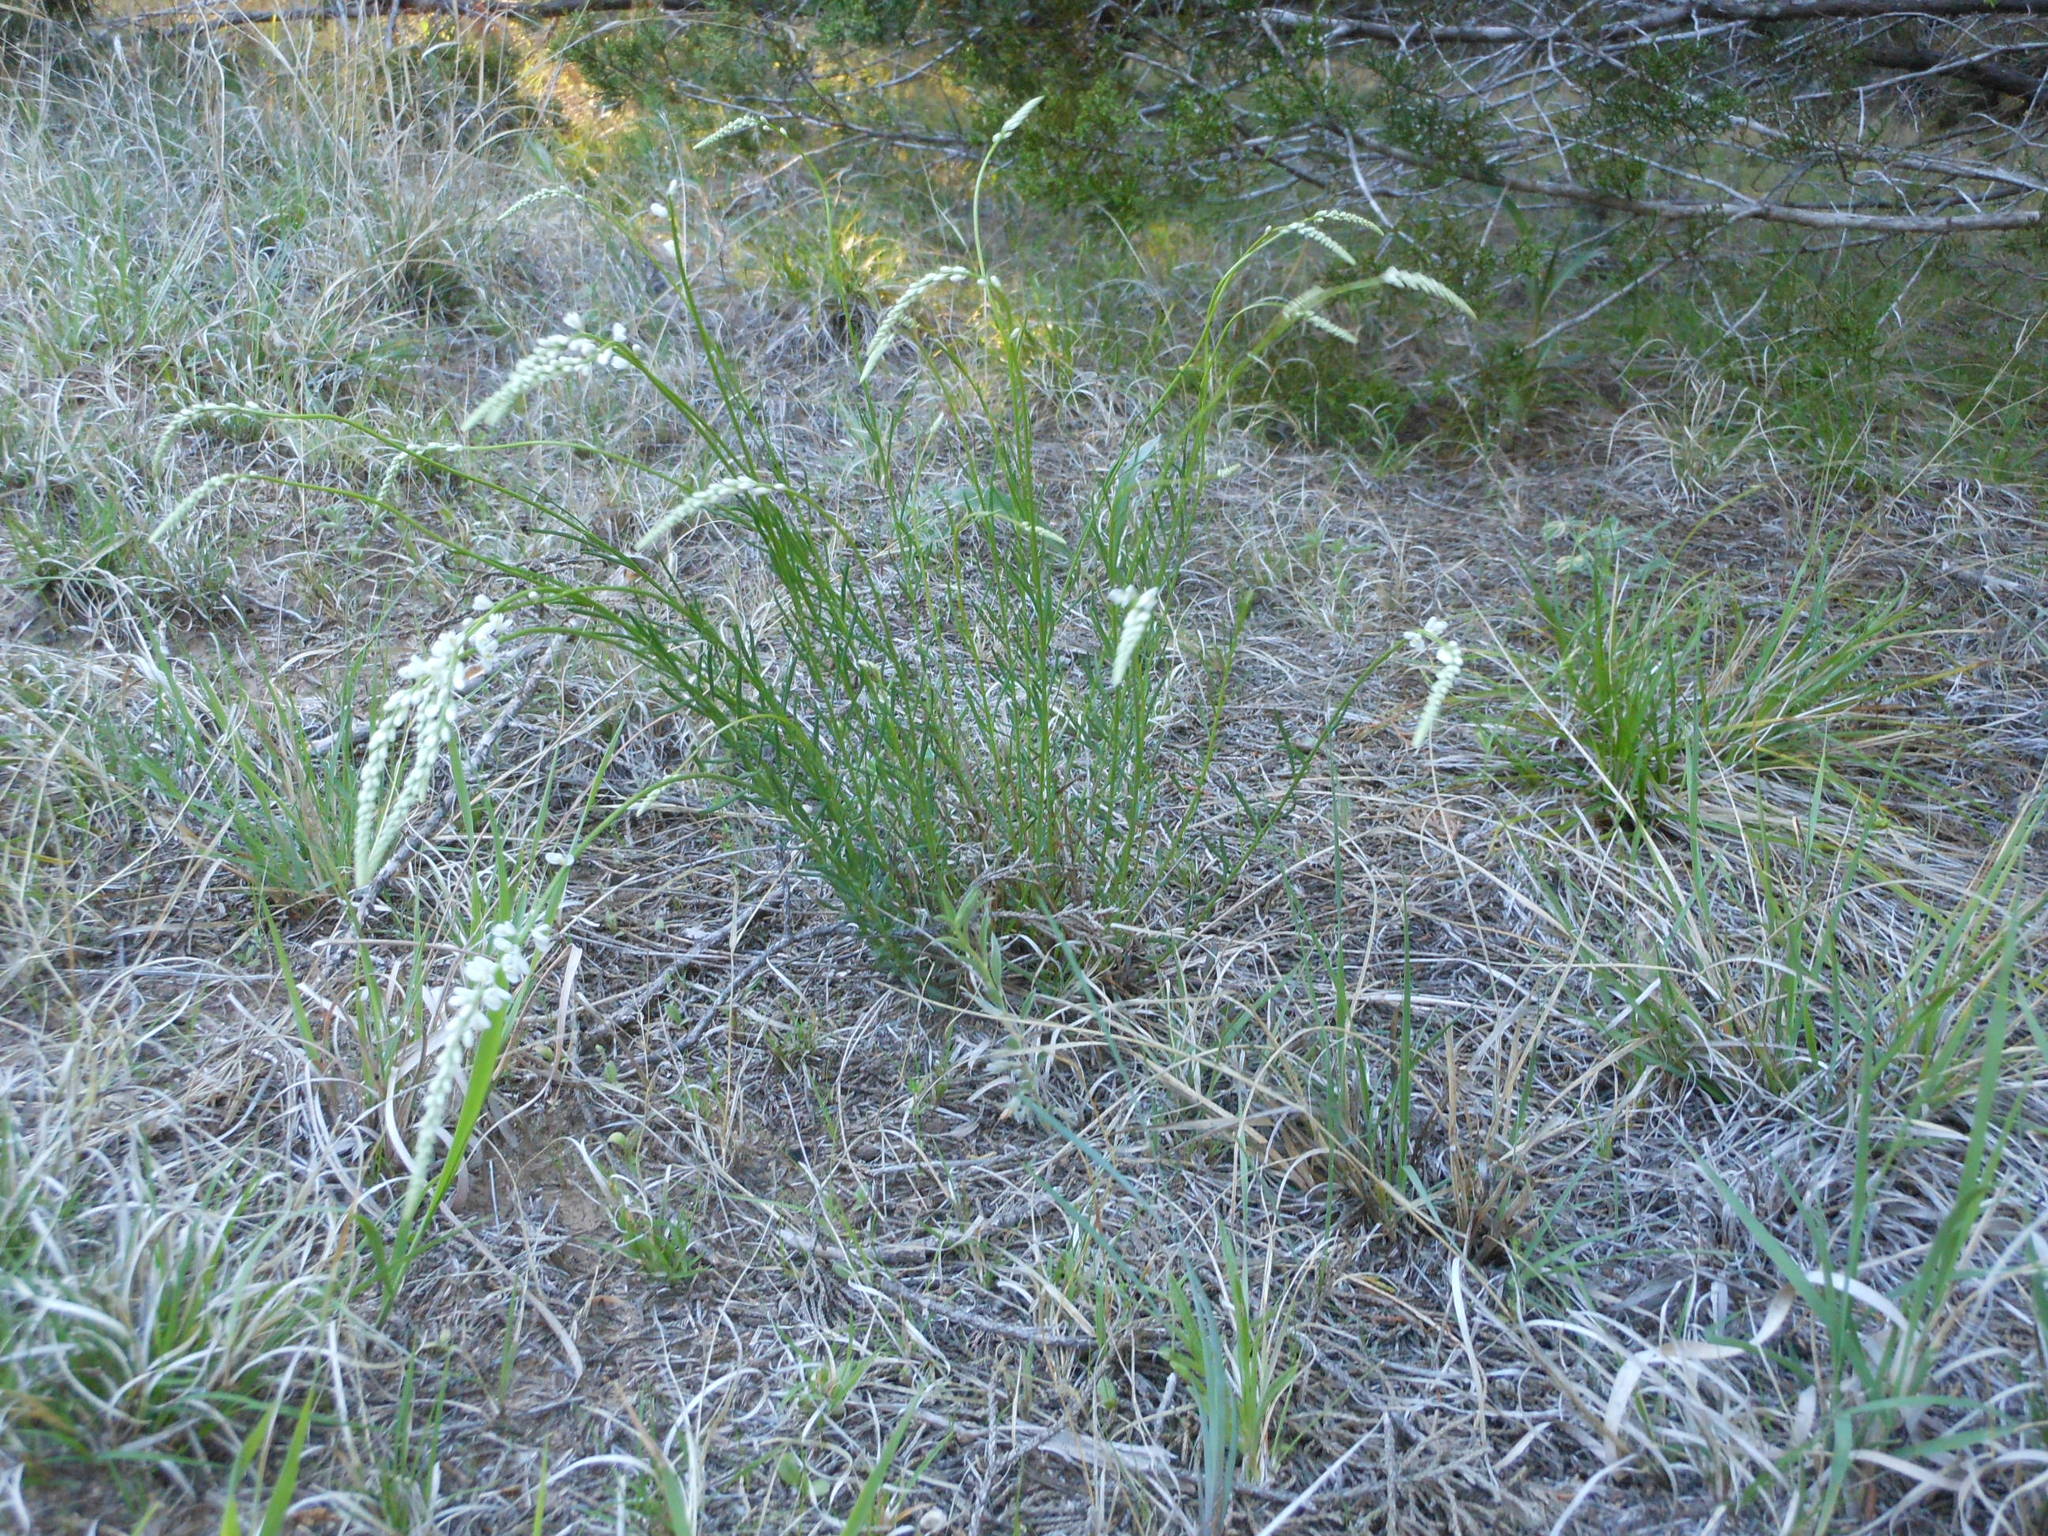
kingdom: Plantae
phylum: Tracheophyta
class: Magnoliopsida
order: Fabales
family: Polygalaceae
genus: Polygala
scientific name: Polygala alba
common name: White milkwort
